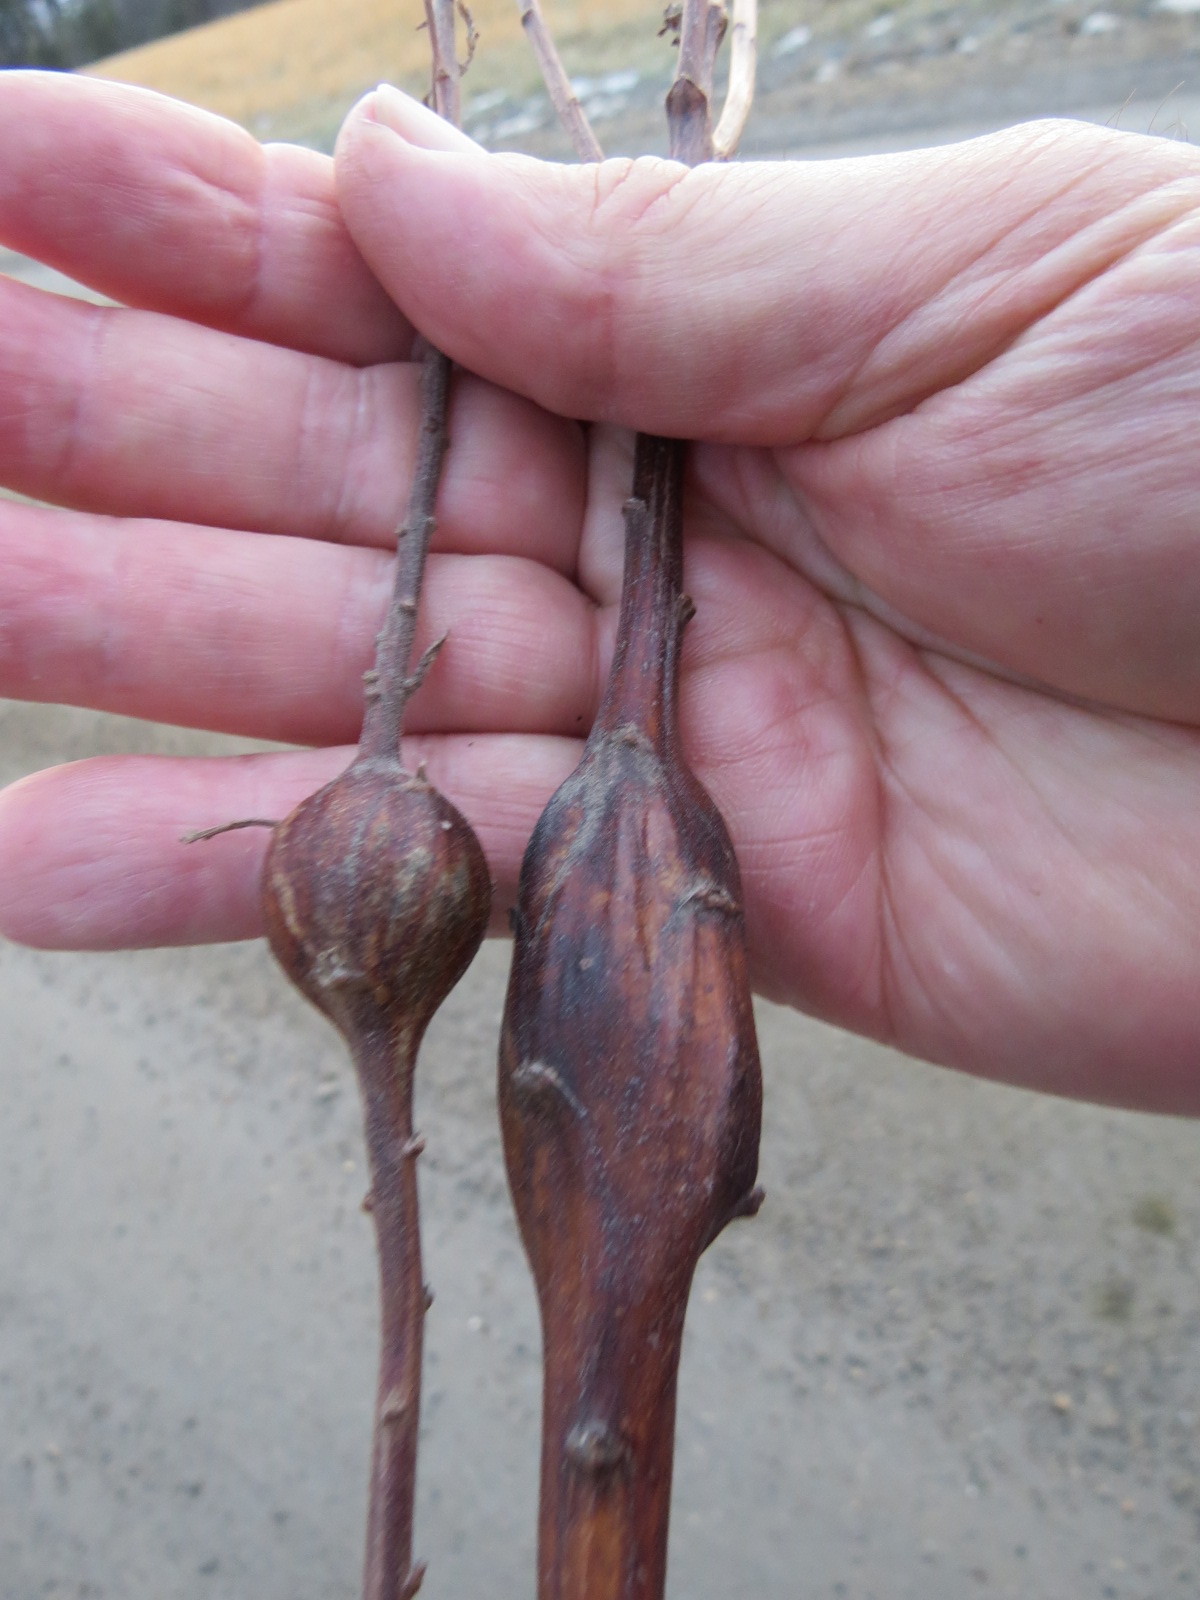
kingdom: Animalia
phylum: Arthropoda
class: Insecta
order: Lepidoptera
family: Gelechiidae
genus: Gnorimoschema
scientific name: Gnorimoschema gallaesolidaginis
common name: Goldenrod elliptical-gall moth
